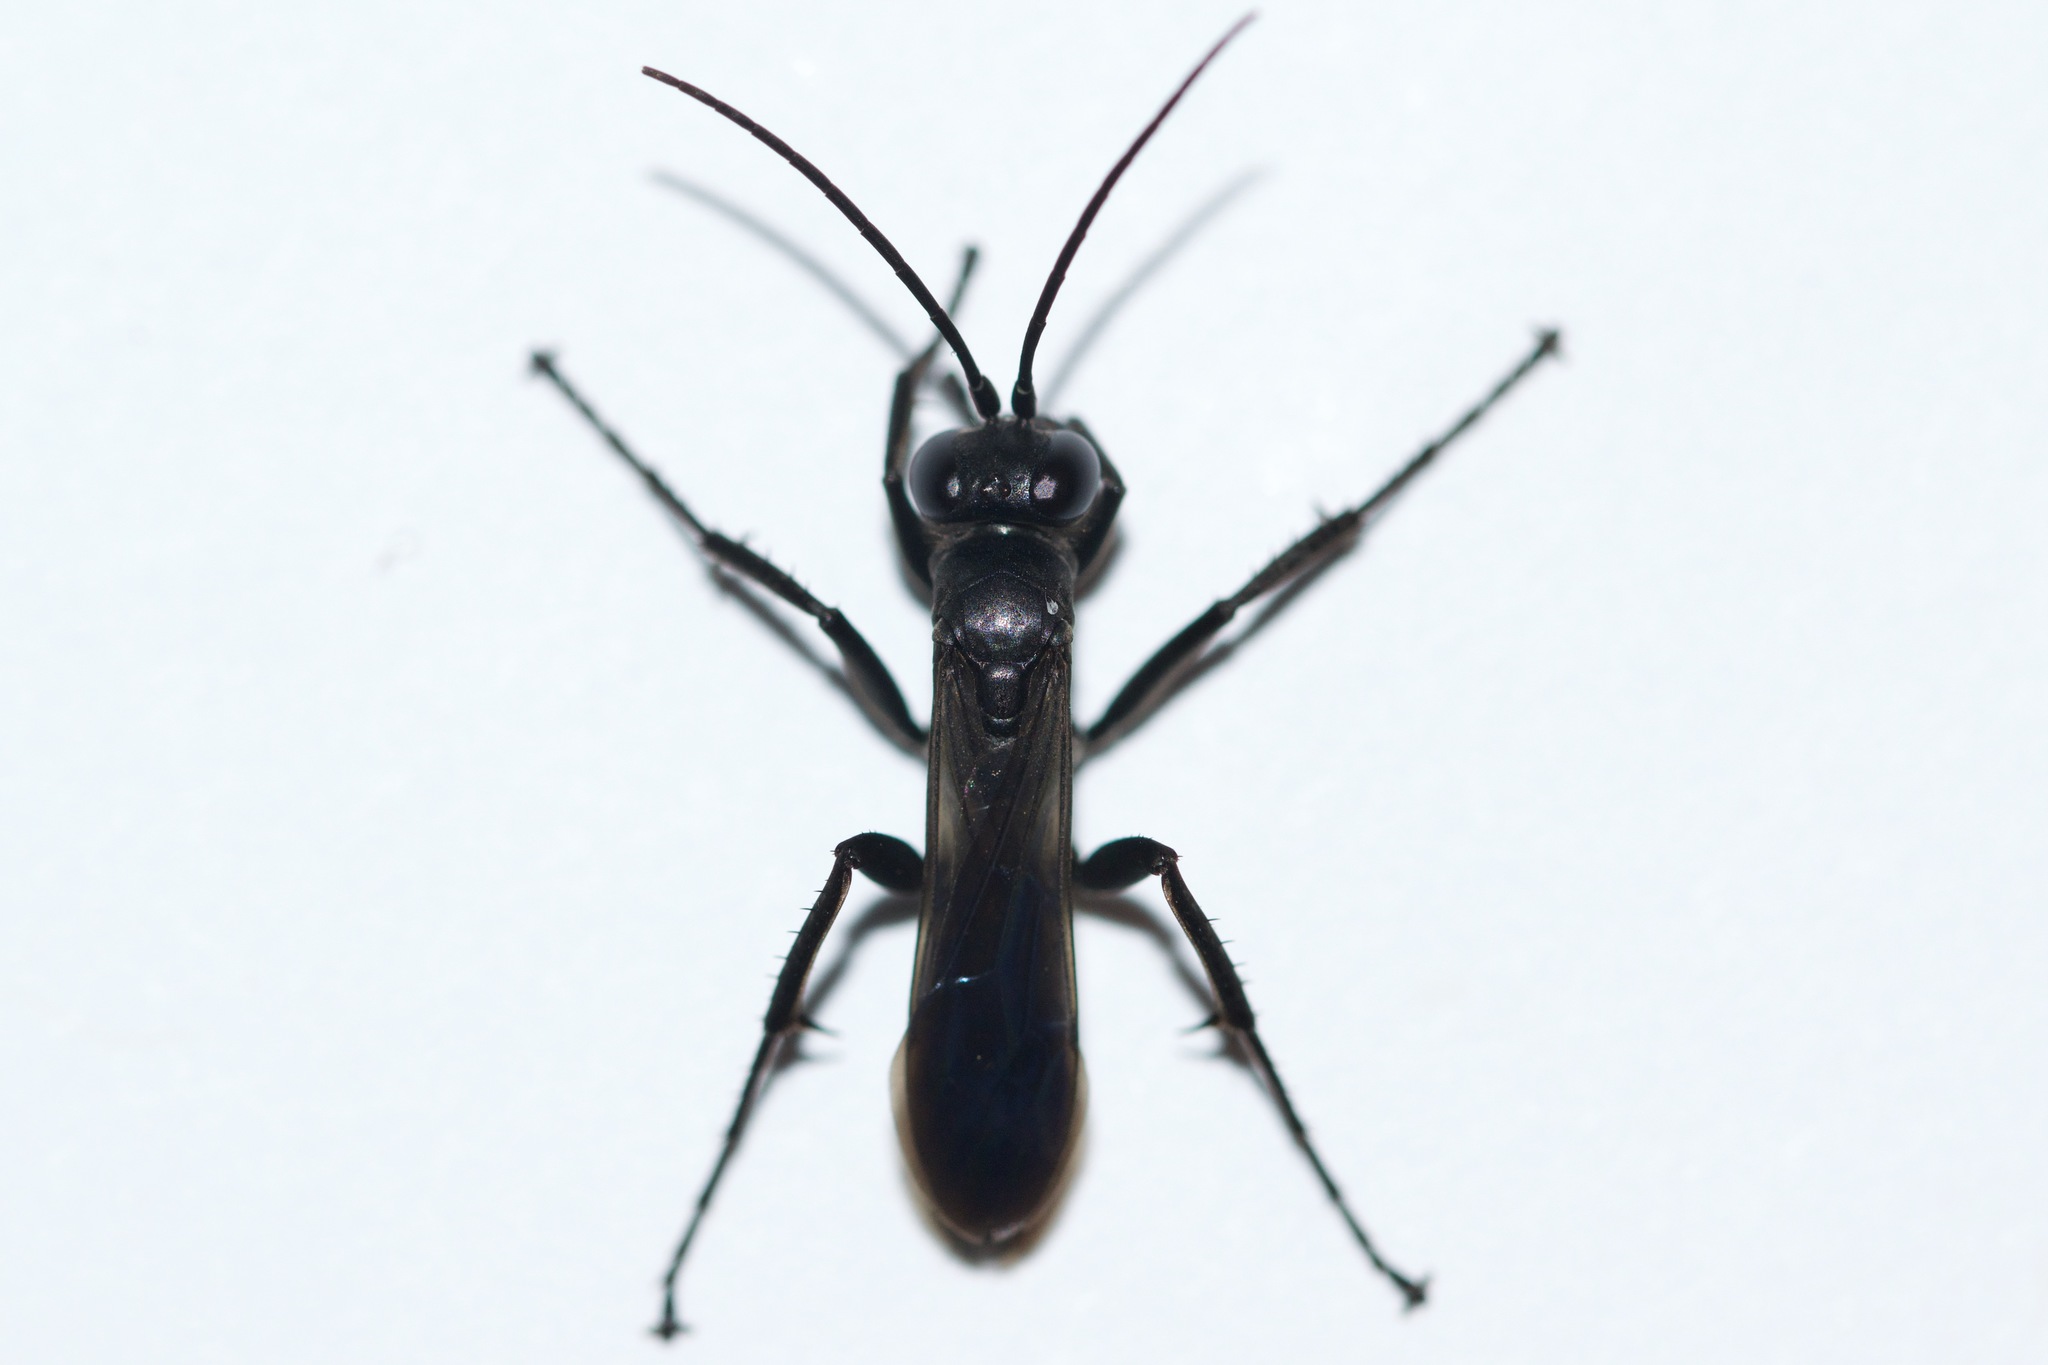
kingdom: Animalia
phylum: Arthropoda
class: Insecta
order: Hymenoptera
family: Pompilidae
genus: Anoplius
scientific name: Anoplius virginiensis
